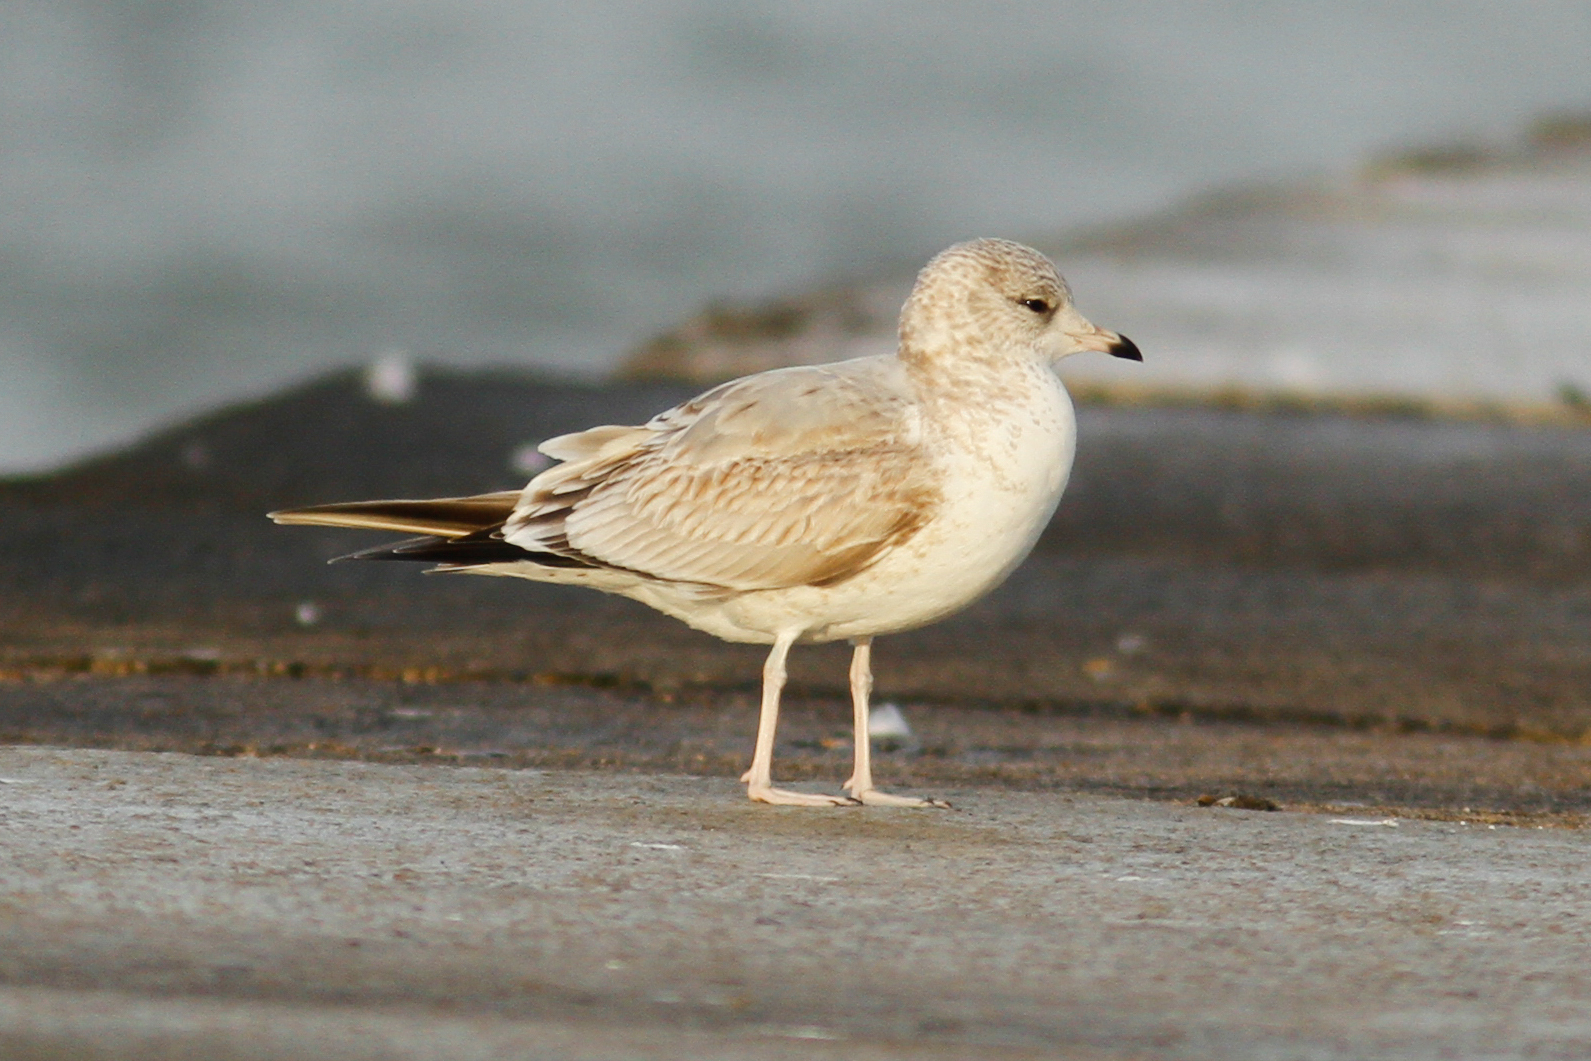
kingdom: Animalia
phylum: Chordata
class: Aves
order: Charadriiformes
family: Laridae
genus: Larus
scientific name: Larus delawarensis
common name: Ring-billed gull
